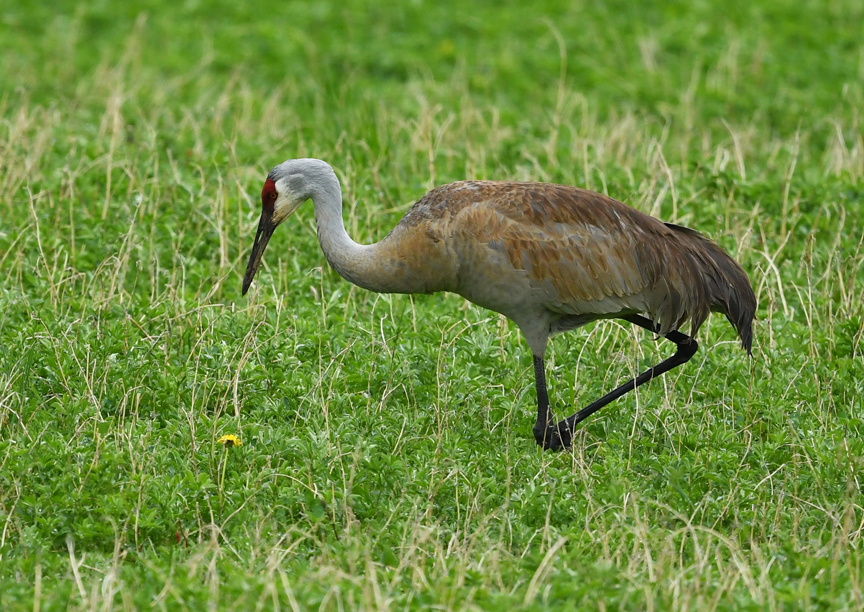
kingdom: Animalia
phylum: Chordata
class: Aves
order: Gruiformes
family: Gruidae
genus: Grus
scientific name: Grus canadensis
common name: Sandhill crane
